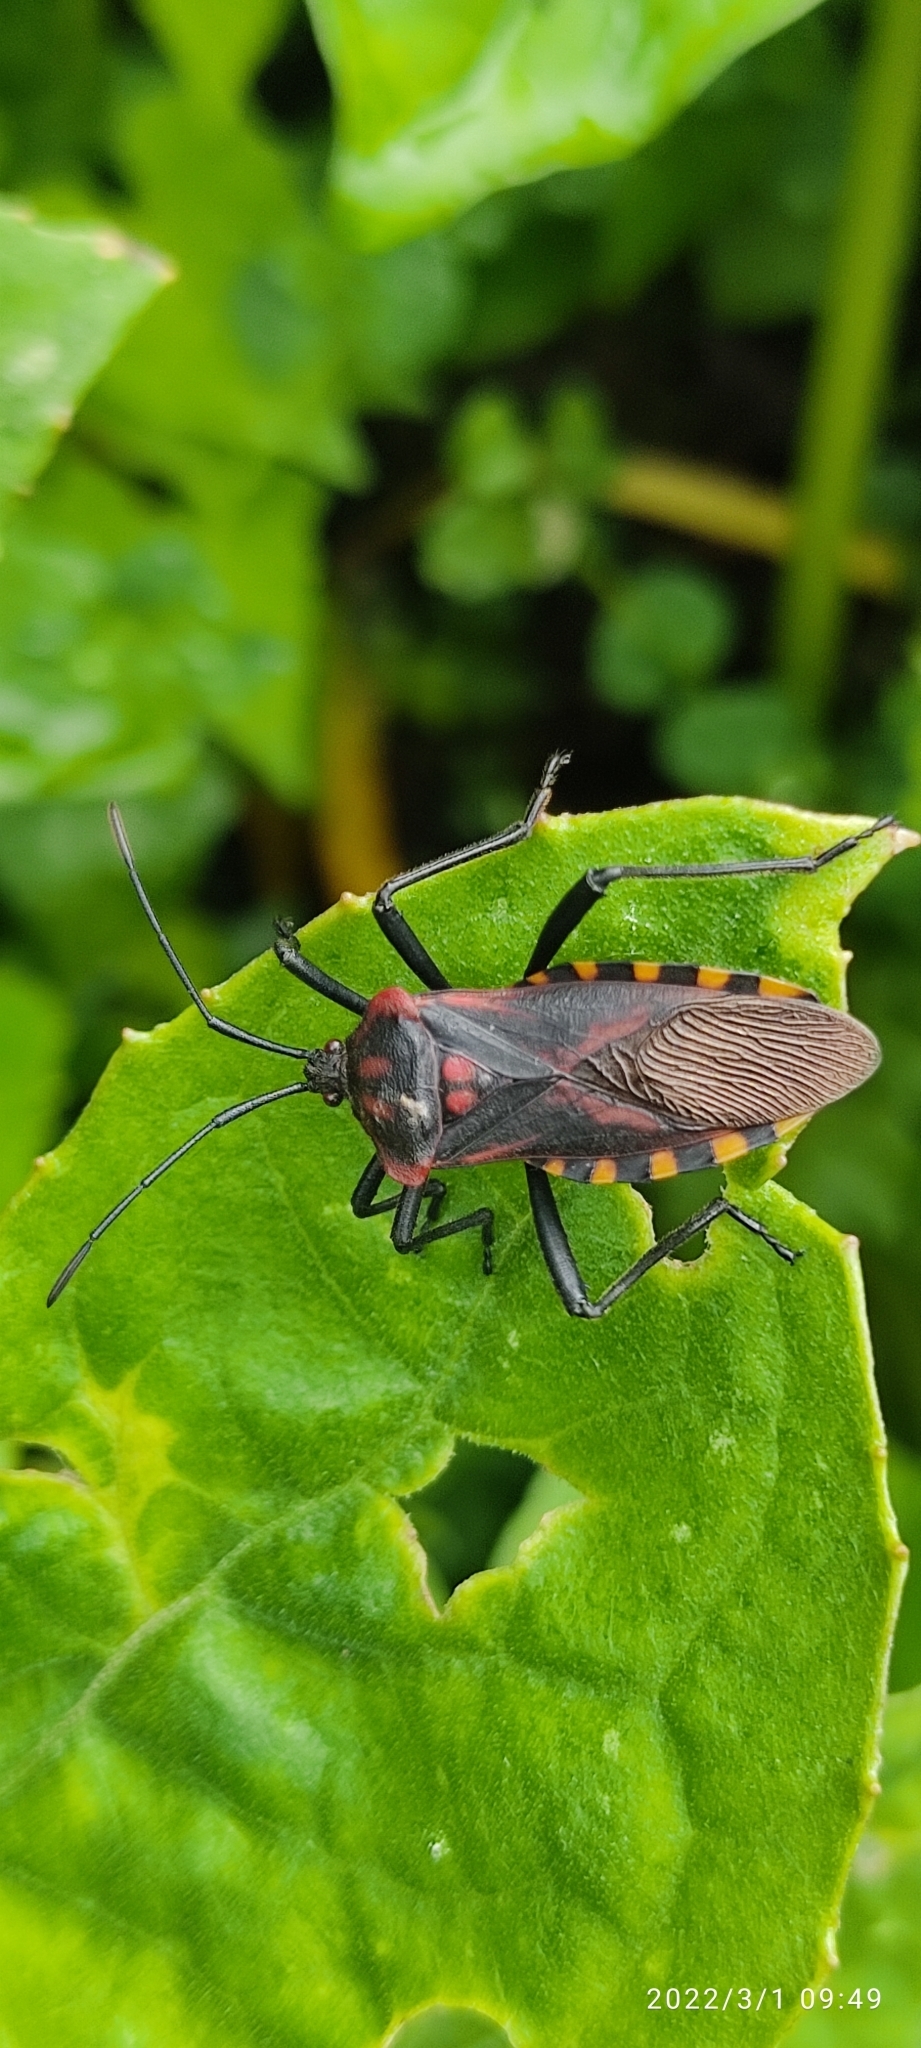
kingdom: Animalia
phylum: Arthropoda
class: Insecta
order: Hemiptera
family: Coreidae
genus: Piezogaster
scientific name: Piezogaster rubropictus
